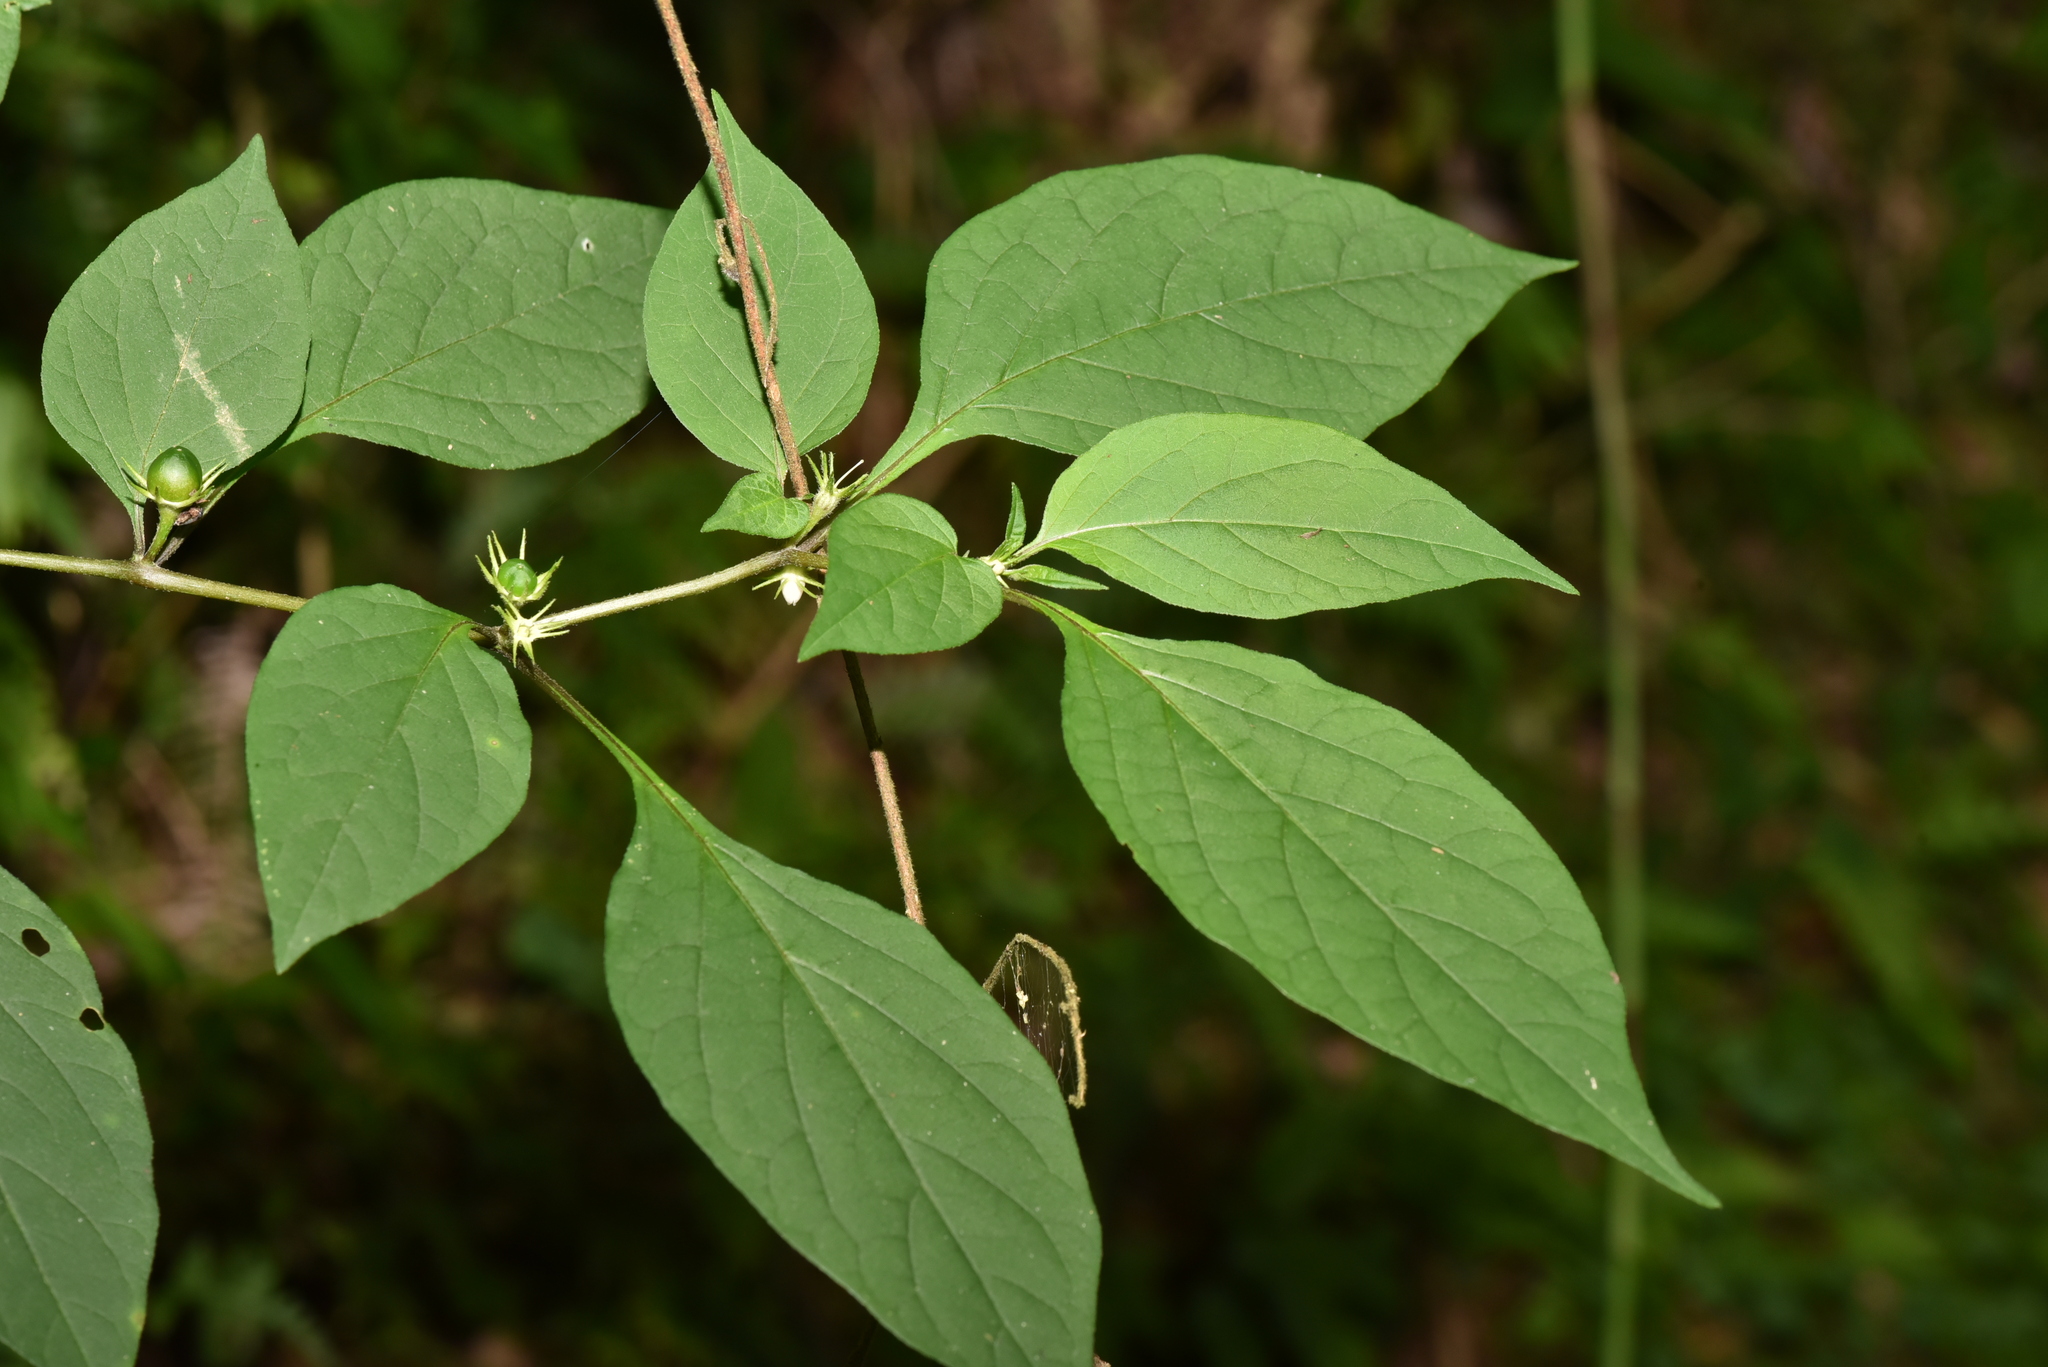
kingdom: Plantae
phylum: Tracheophyta
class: Magnoliopsida
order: Solanales
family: Solanaceae
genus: Lycianthes
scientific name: Lycianthes biflora
